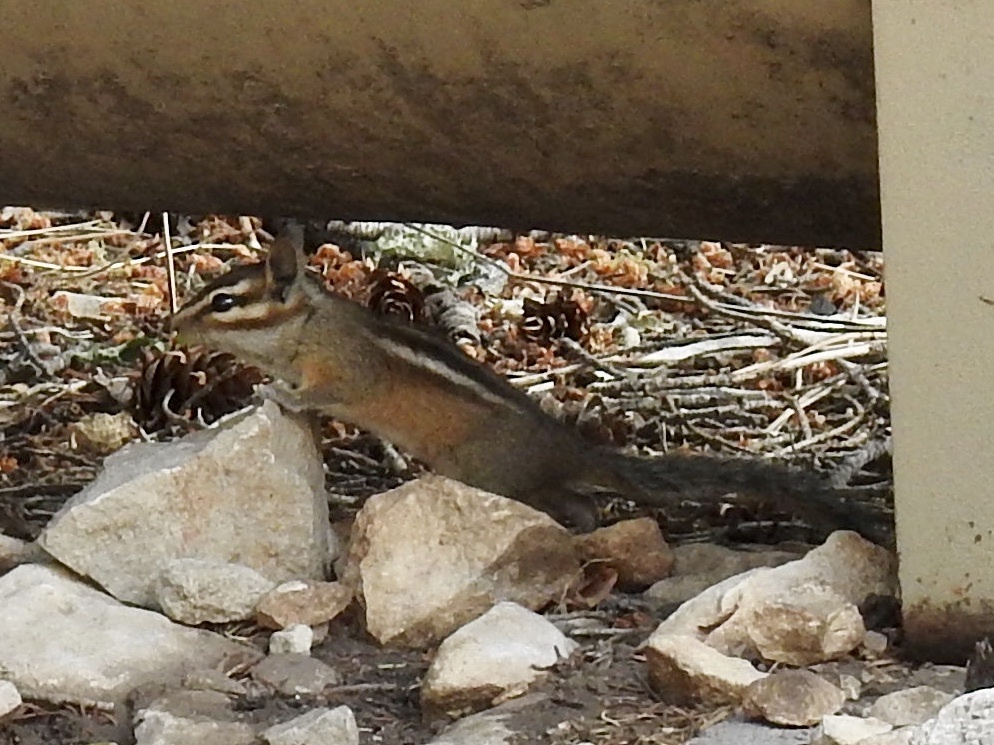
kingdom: Animalia
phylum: Chordata
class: Mammalia
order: Rodentia
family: Sciuridae
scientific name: Sciuridae
